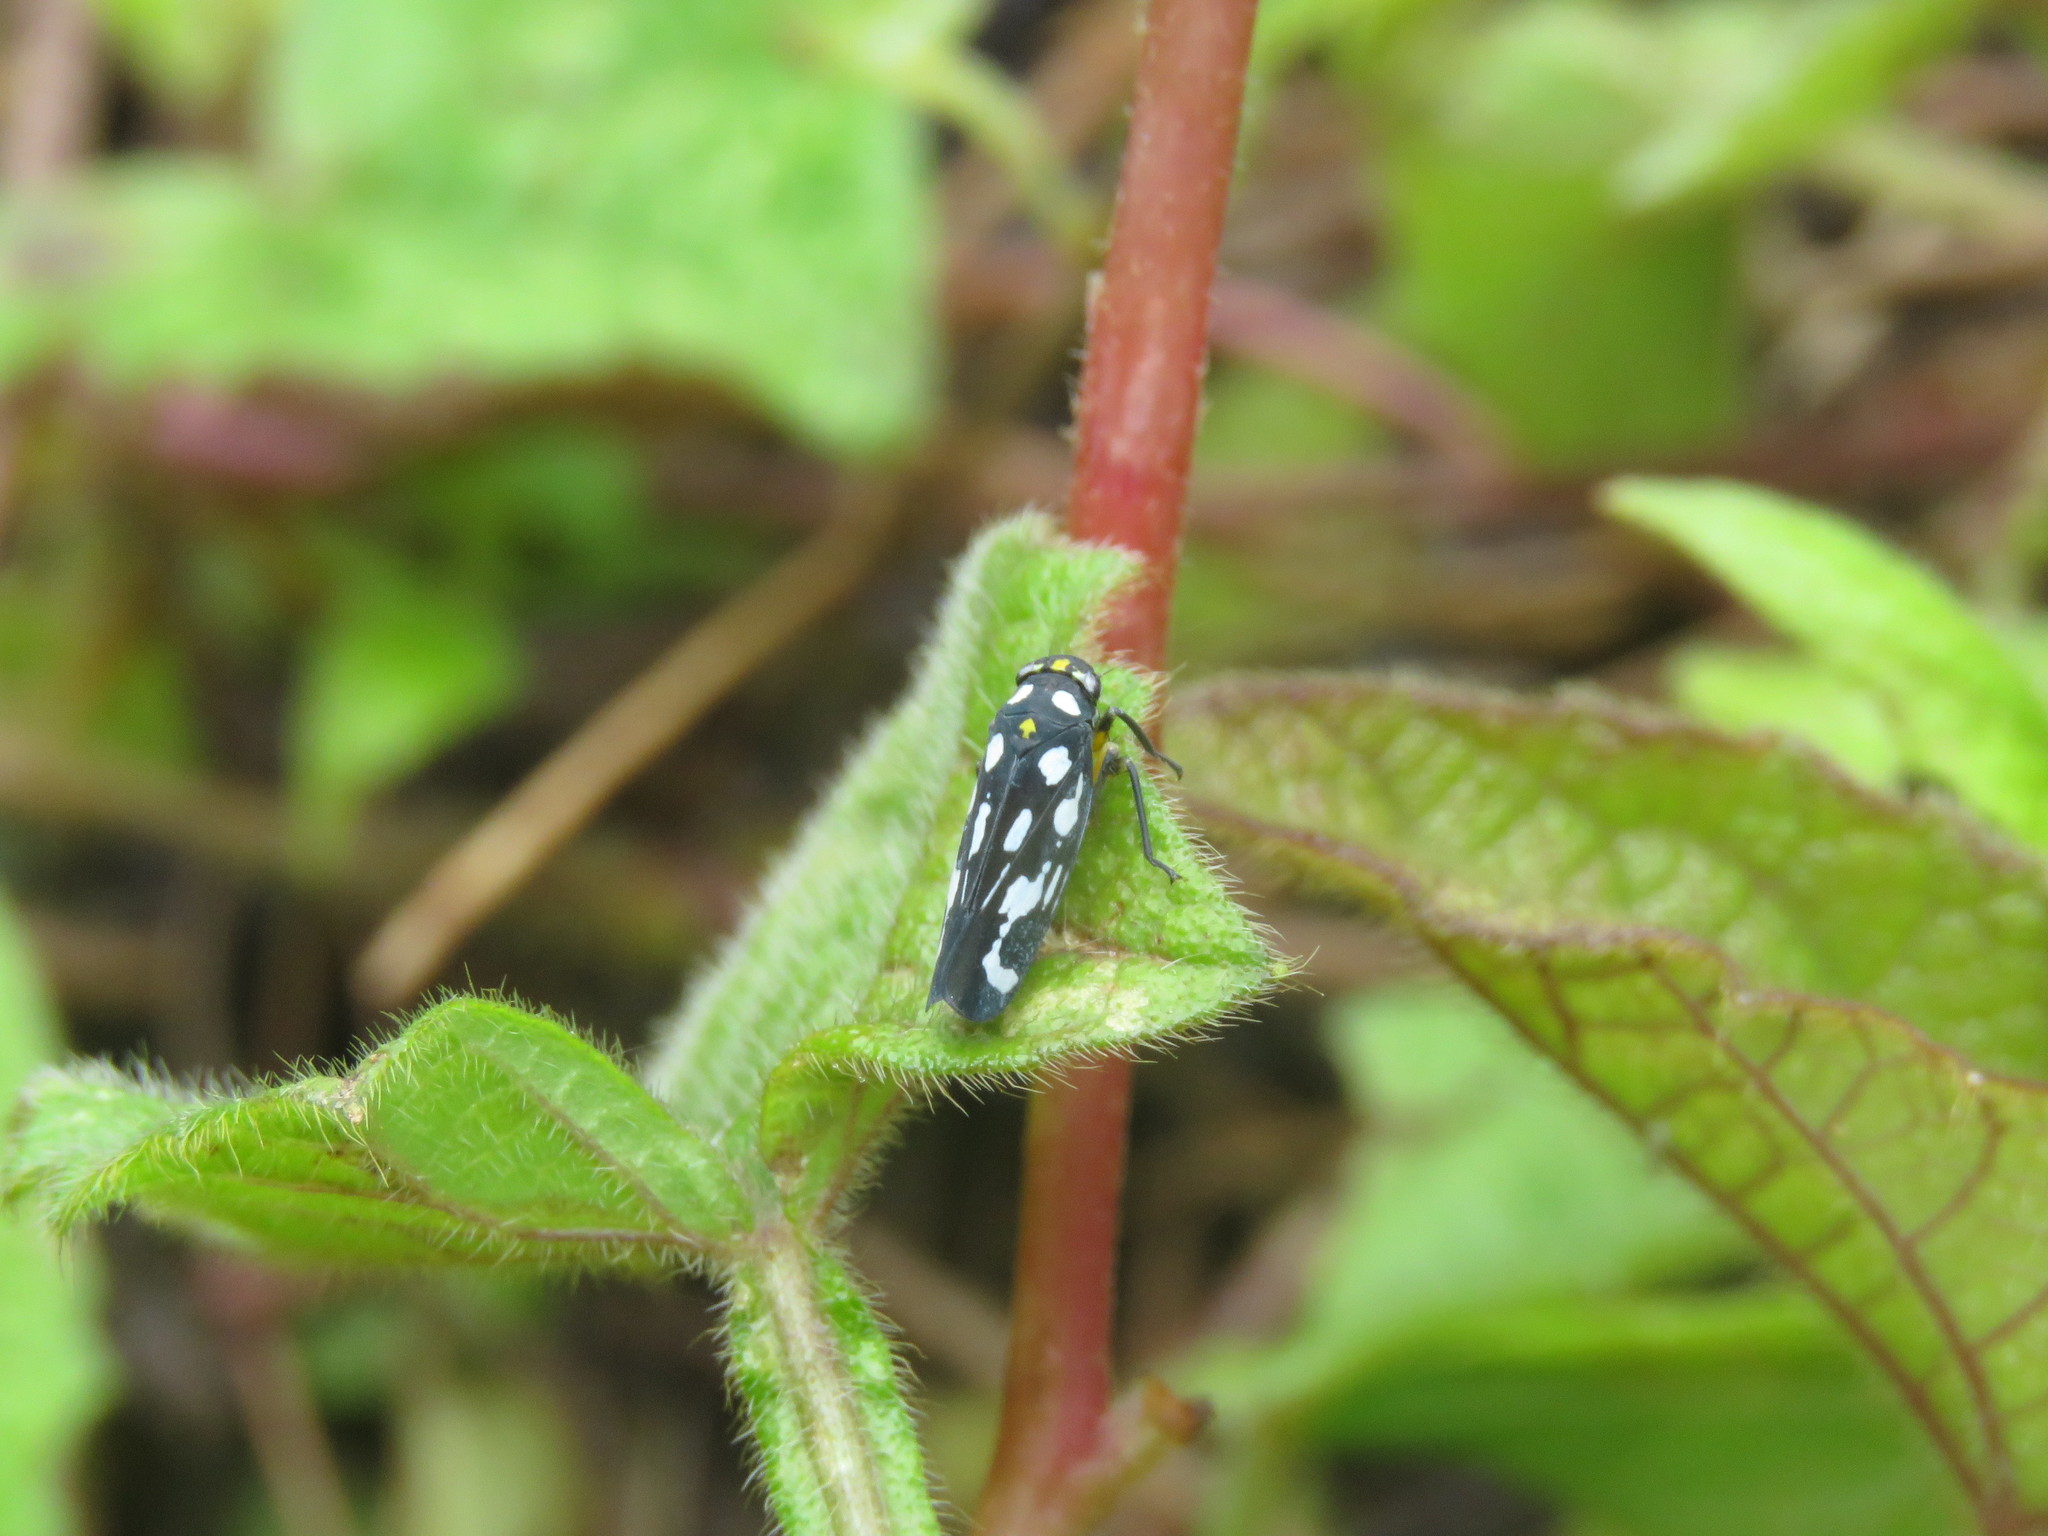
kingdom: Animalia
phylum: Arthropoda
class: Insecta
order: Hemiptera
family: Cicadellidae
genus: Stehlikiana
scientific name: Stehlikiana crassa
